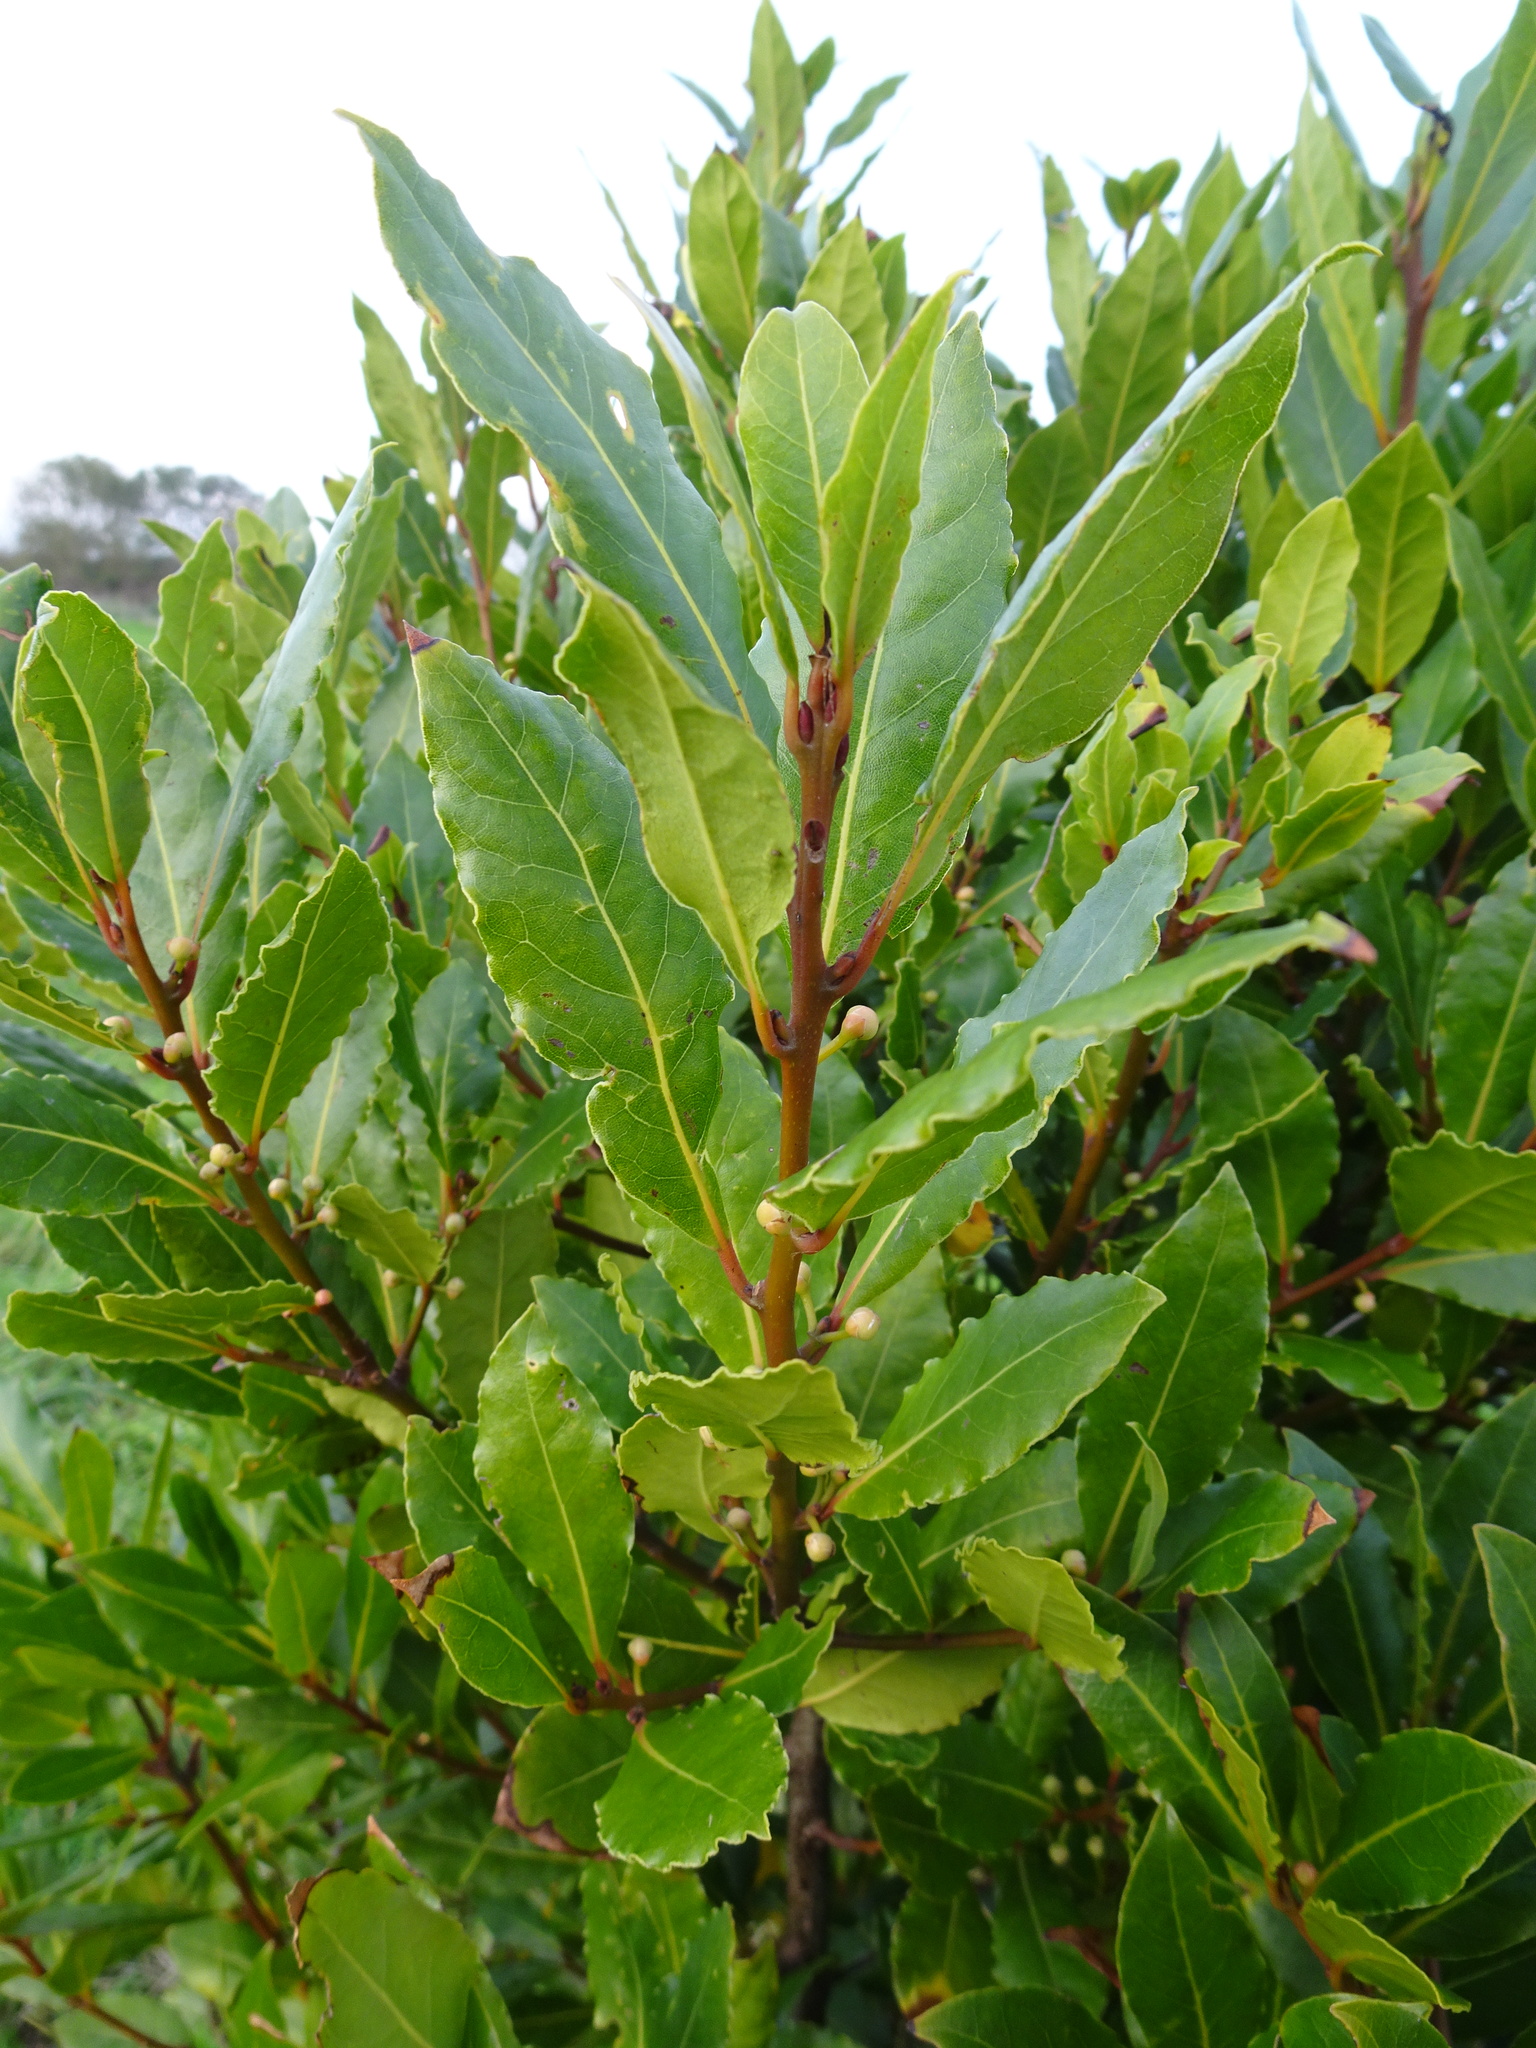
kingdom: Plantae
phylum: Tracheophyta
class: Magnoliopsida
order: Laurales
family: Lauraceae
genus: Laurus
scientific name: Laurus nobilis
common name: Bay
